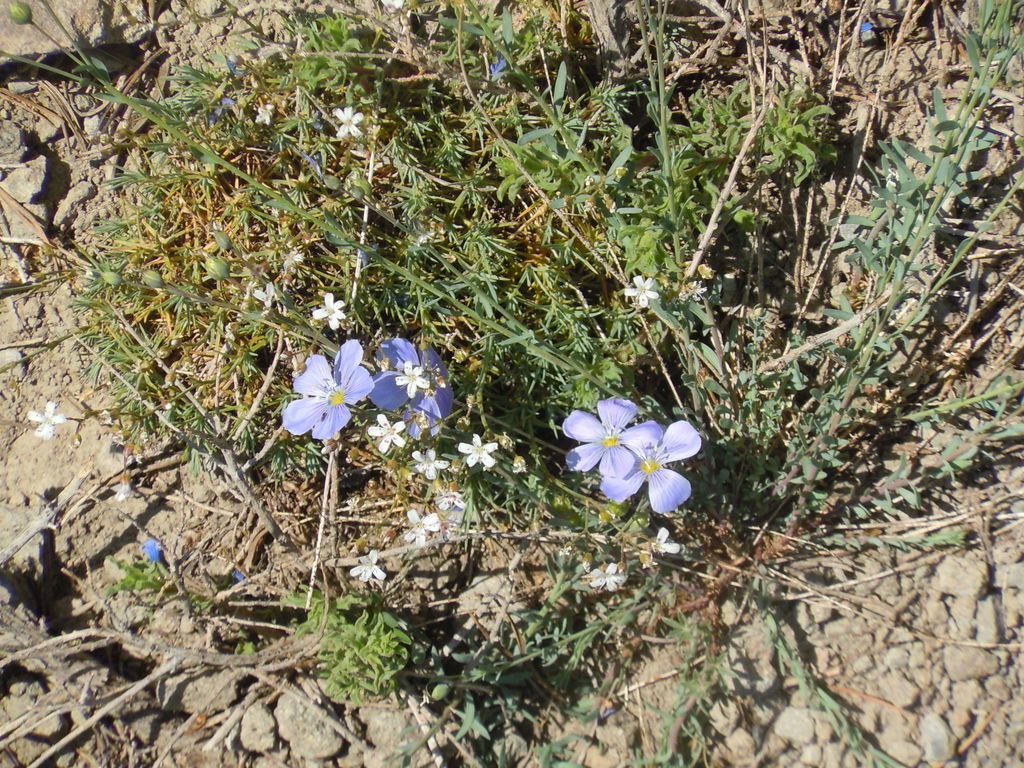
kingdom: Plantae
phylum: Tracheophyta
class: Magnoliopsida
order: Malpighiales
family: Linaceae
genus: Linum
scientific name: Linum lewisii
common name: Prairie flax
